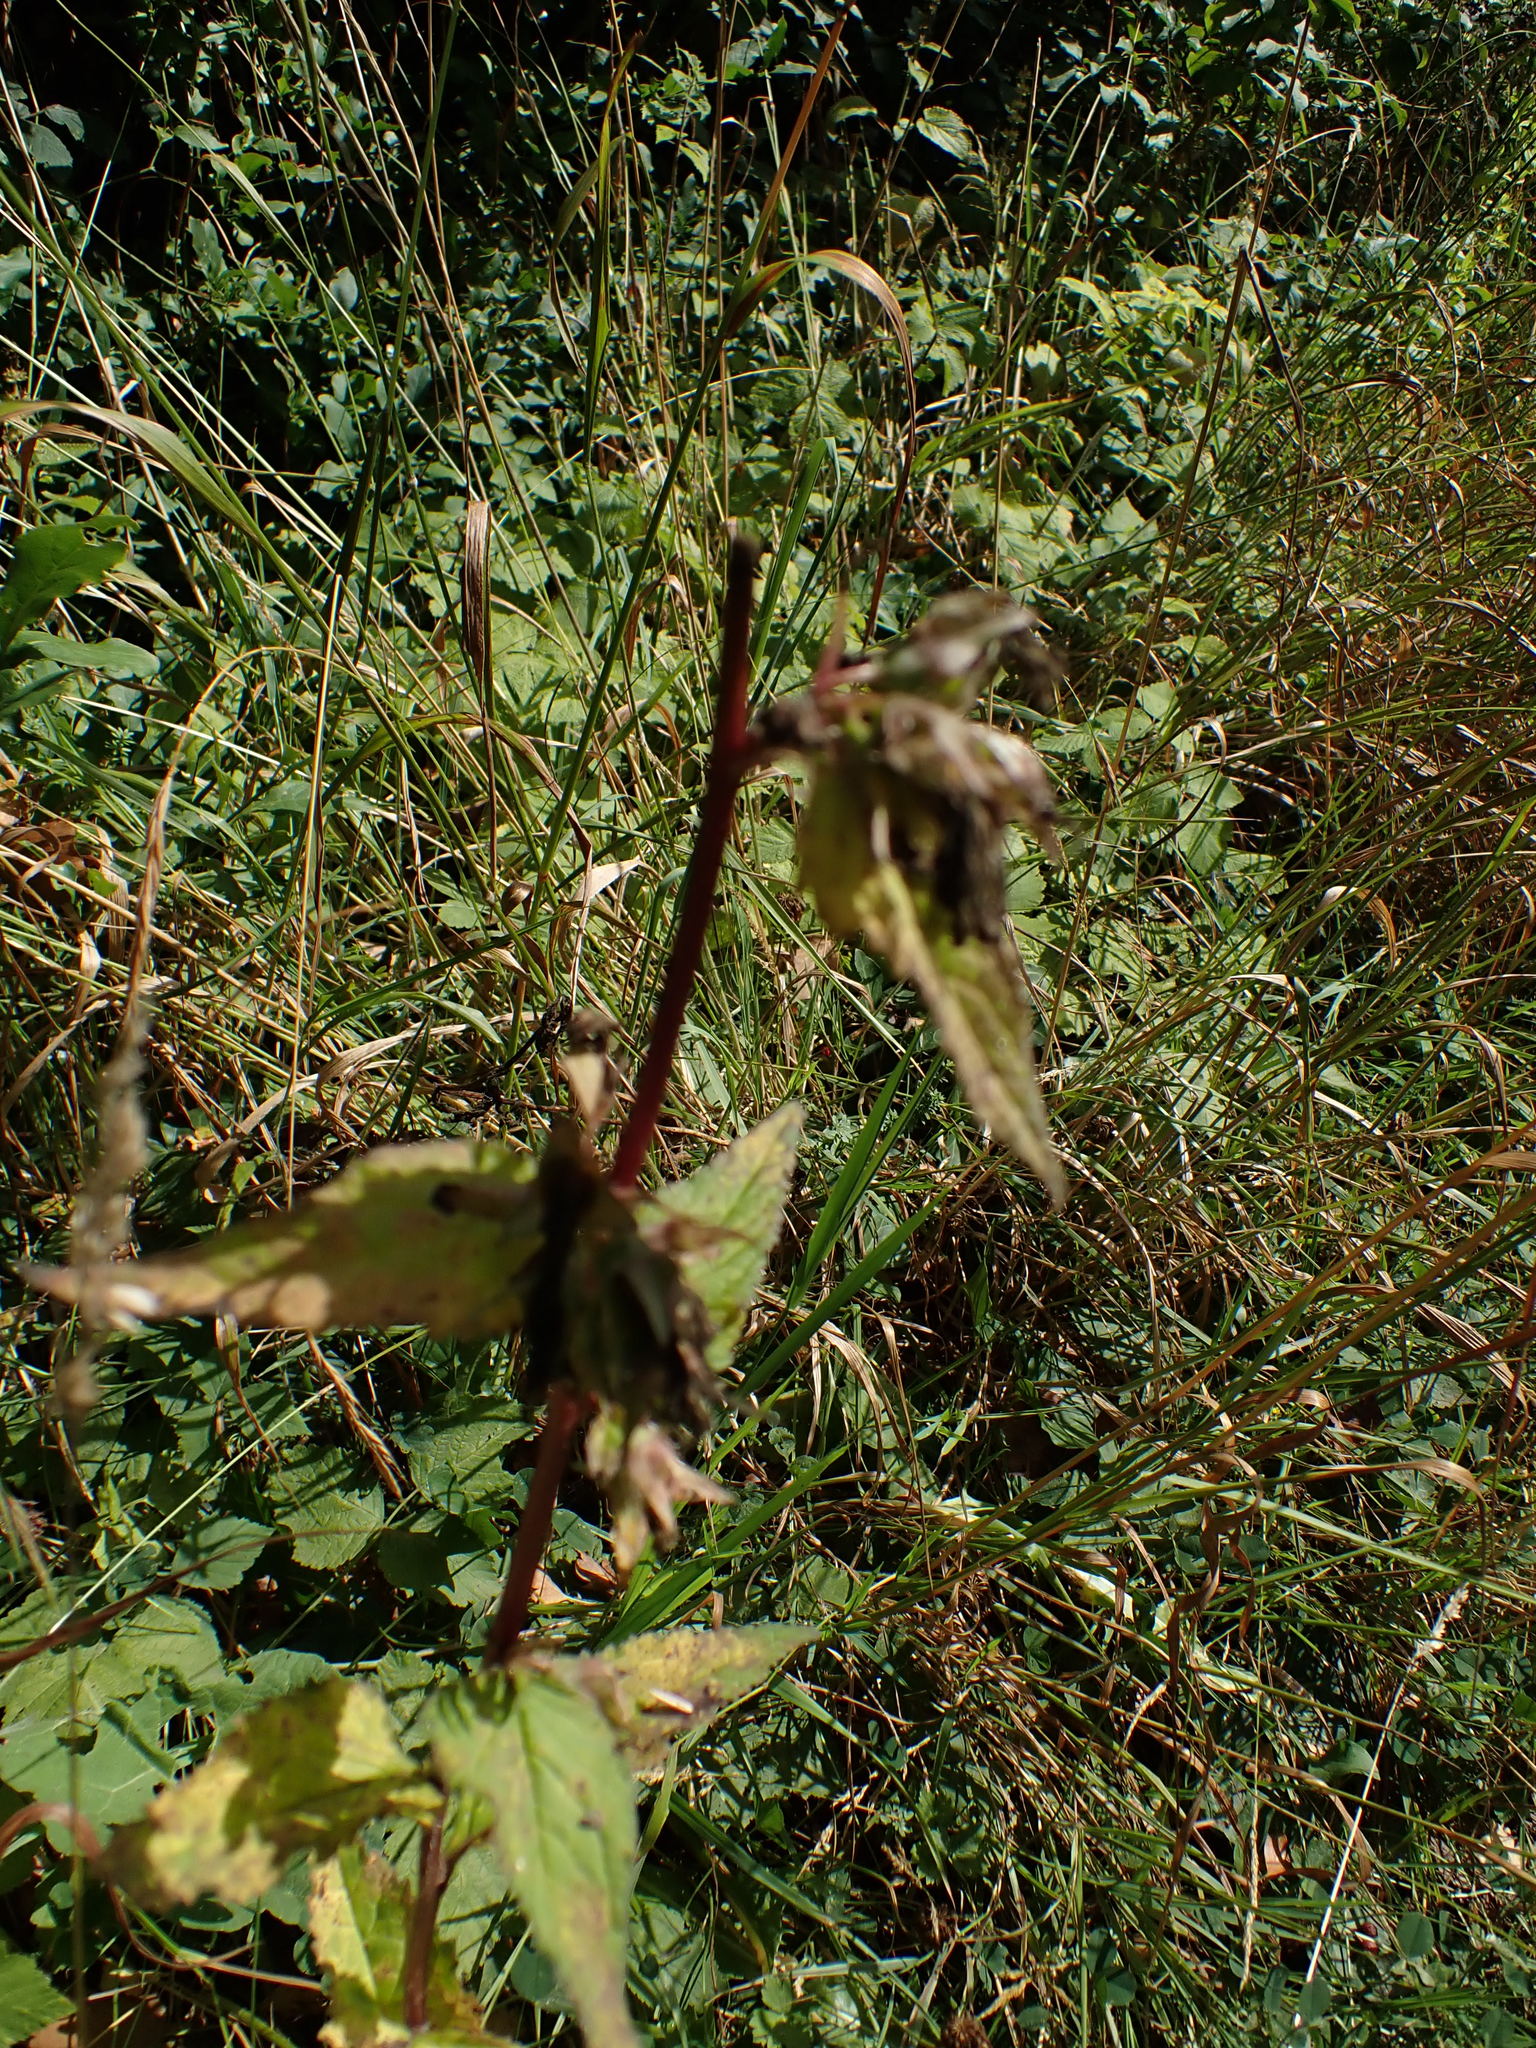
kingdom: Plantae
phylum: Tracheophyta
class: Magnoliopsida
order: Asterales
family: Campanulaceae
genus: Campanula
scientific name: Campanula trachelium
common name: Nettle-leaved bellflower
